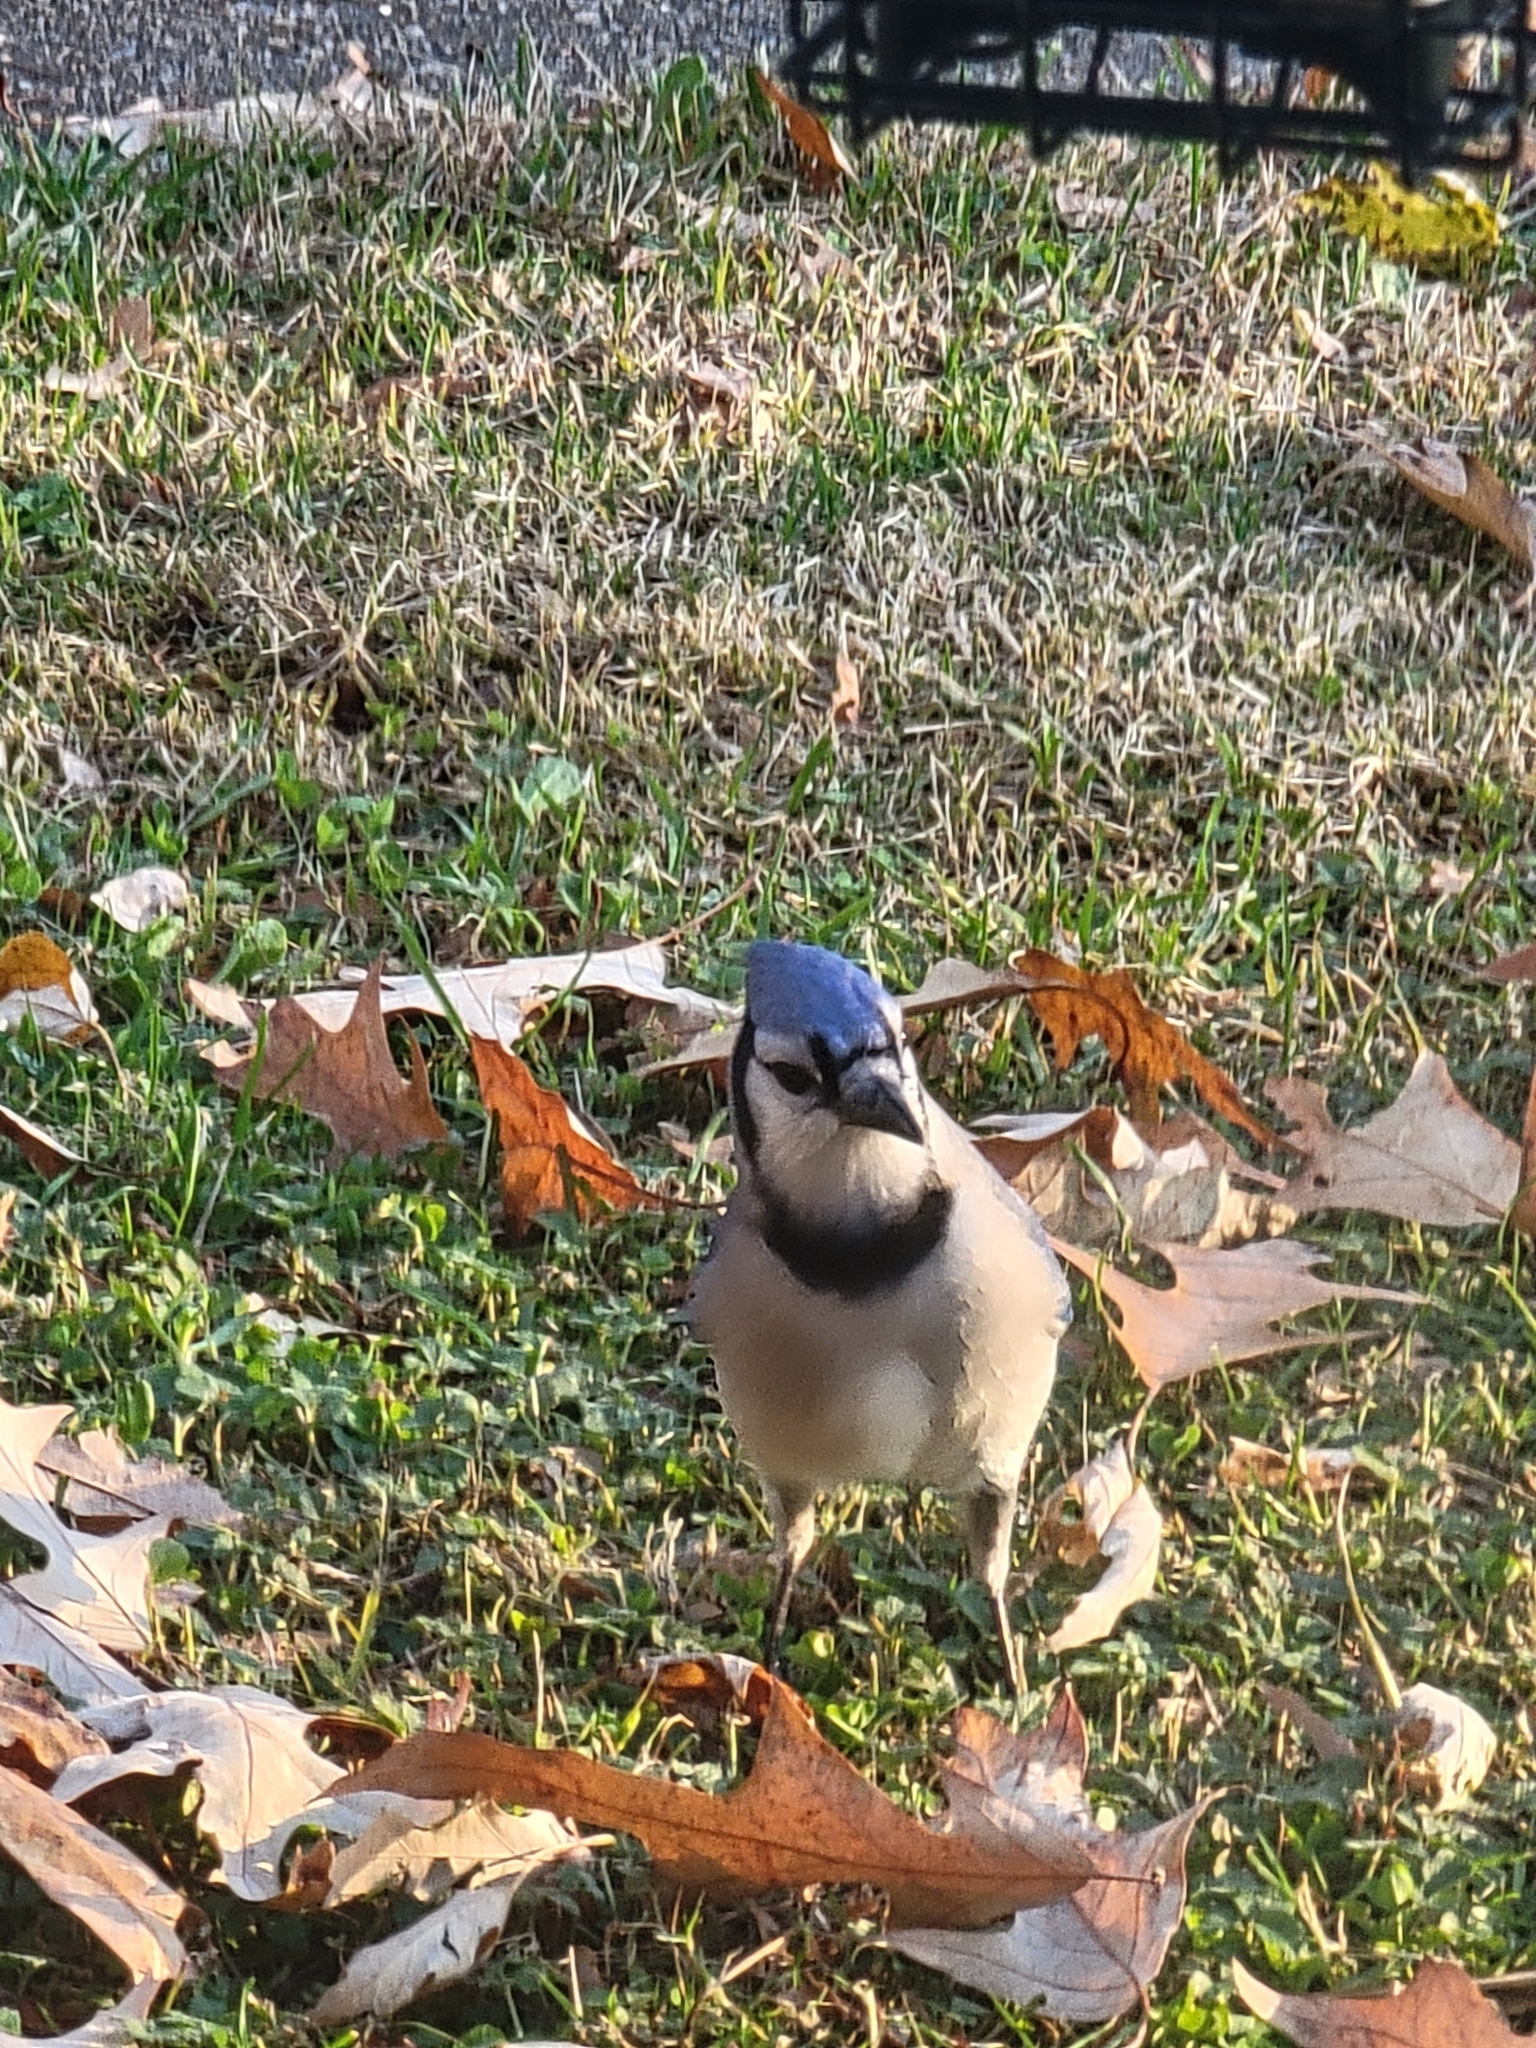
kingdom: Animalia
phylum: Chordata
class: Aves
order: Passeriformes
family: Corvidae
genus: Cyanocitta
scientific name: Cyanocitta cristata
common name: Blue jay
